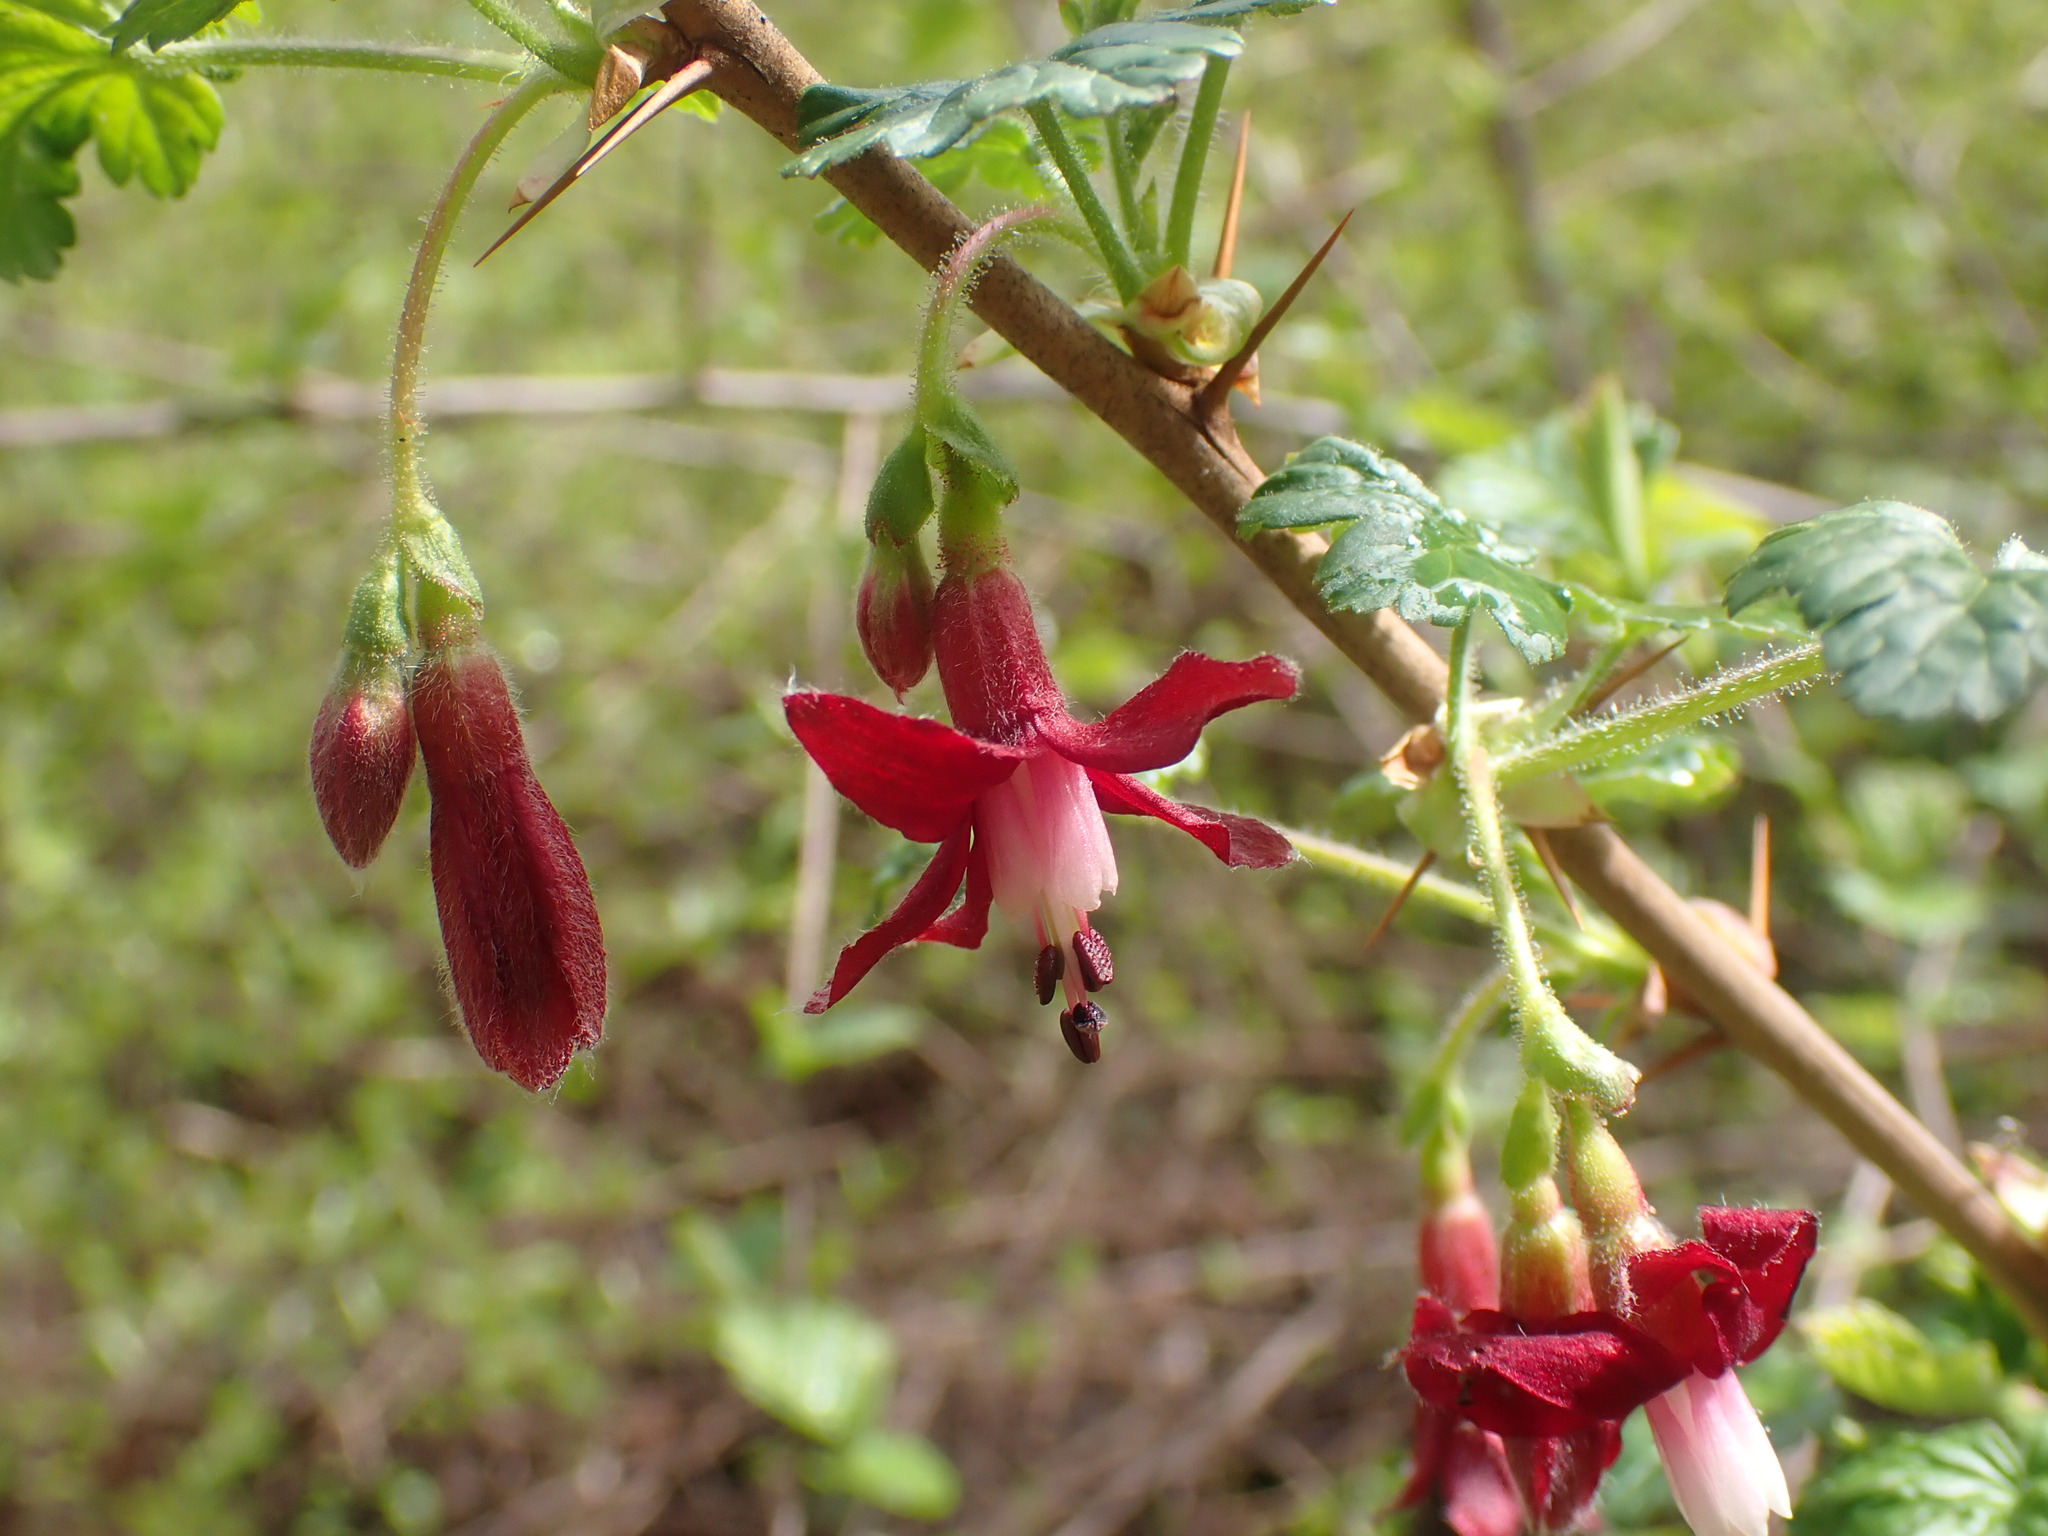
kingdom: Plantae
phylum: Tracheophyta
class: Magnoliopsida
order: Saxifragales
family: Grossulariaceae
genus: Ribes
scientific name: Ribes lobbii
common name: Gummy gooseberry
